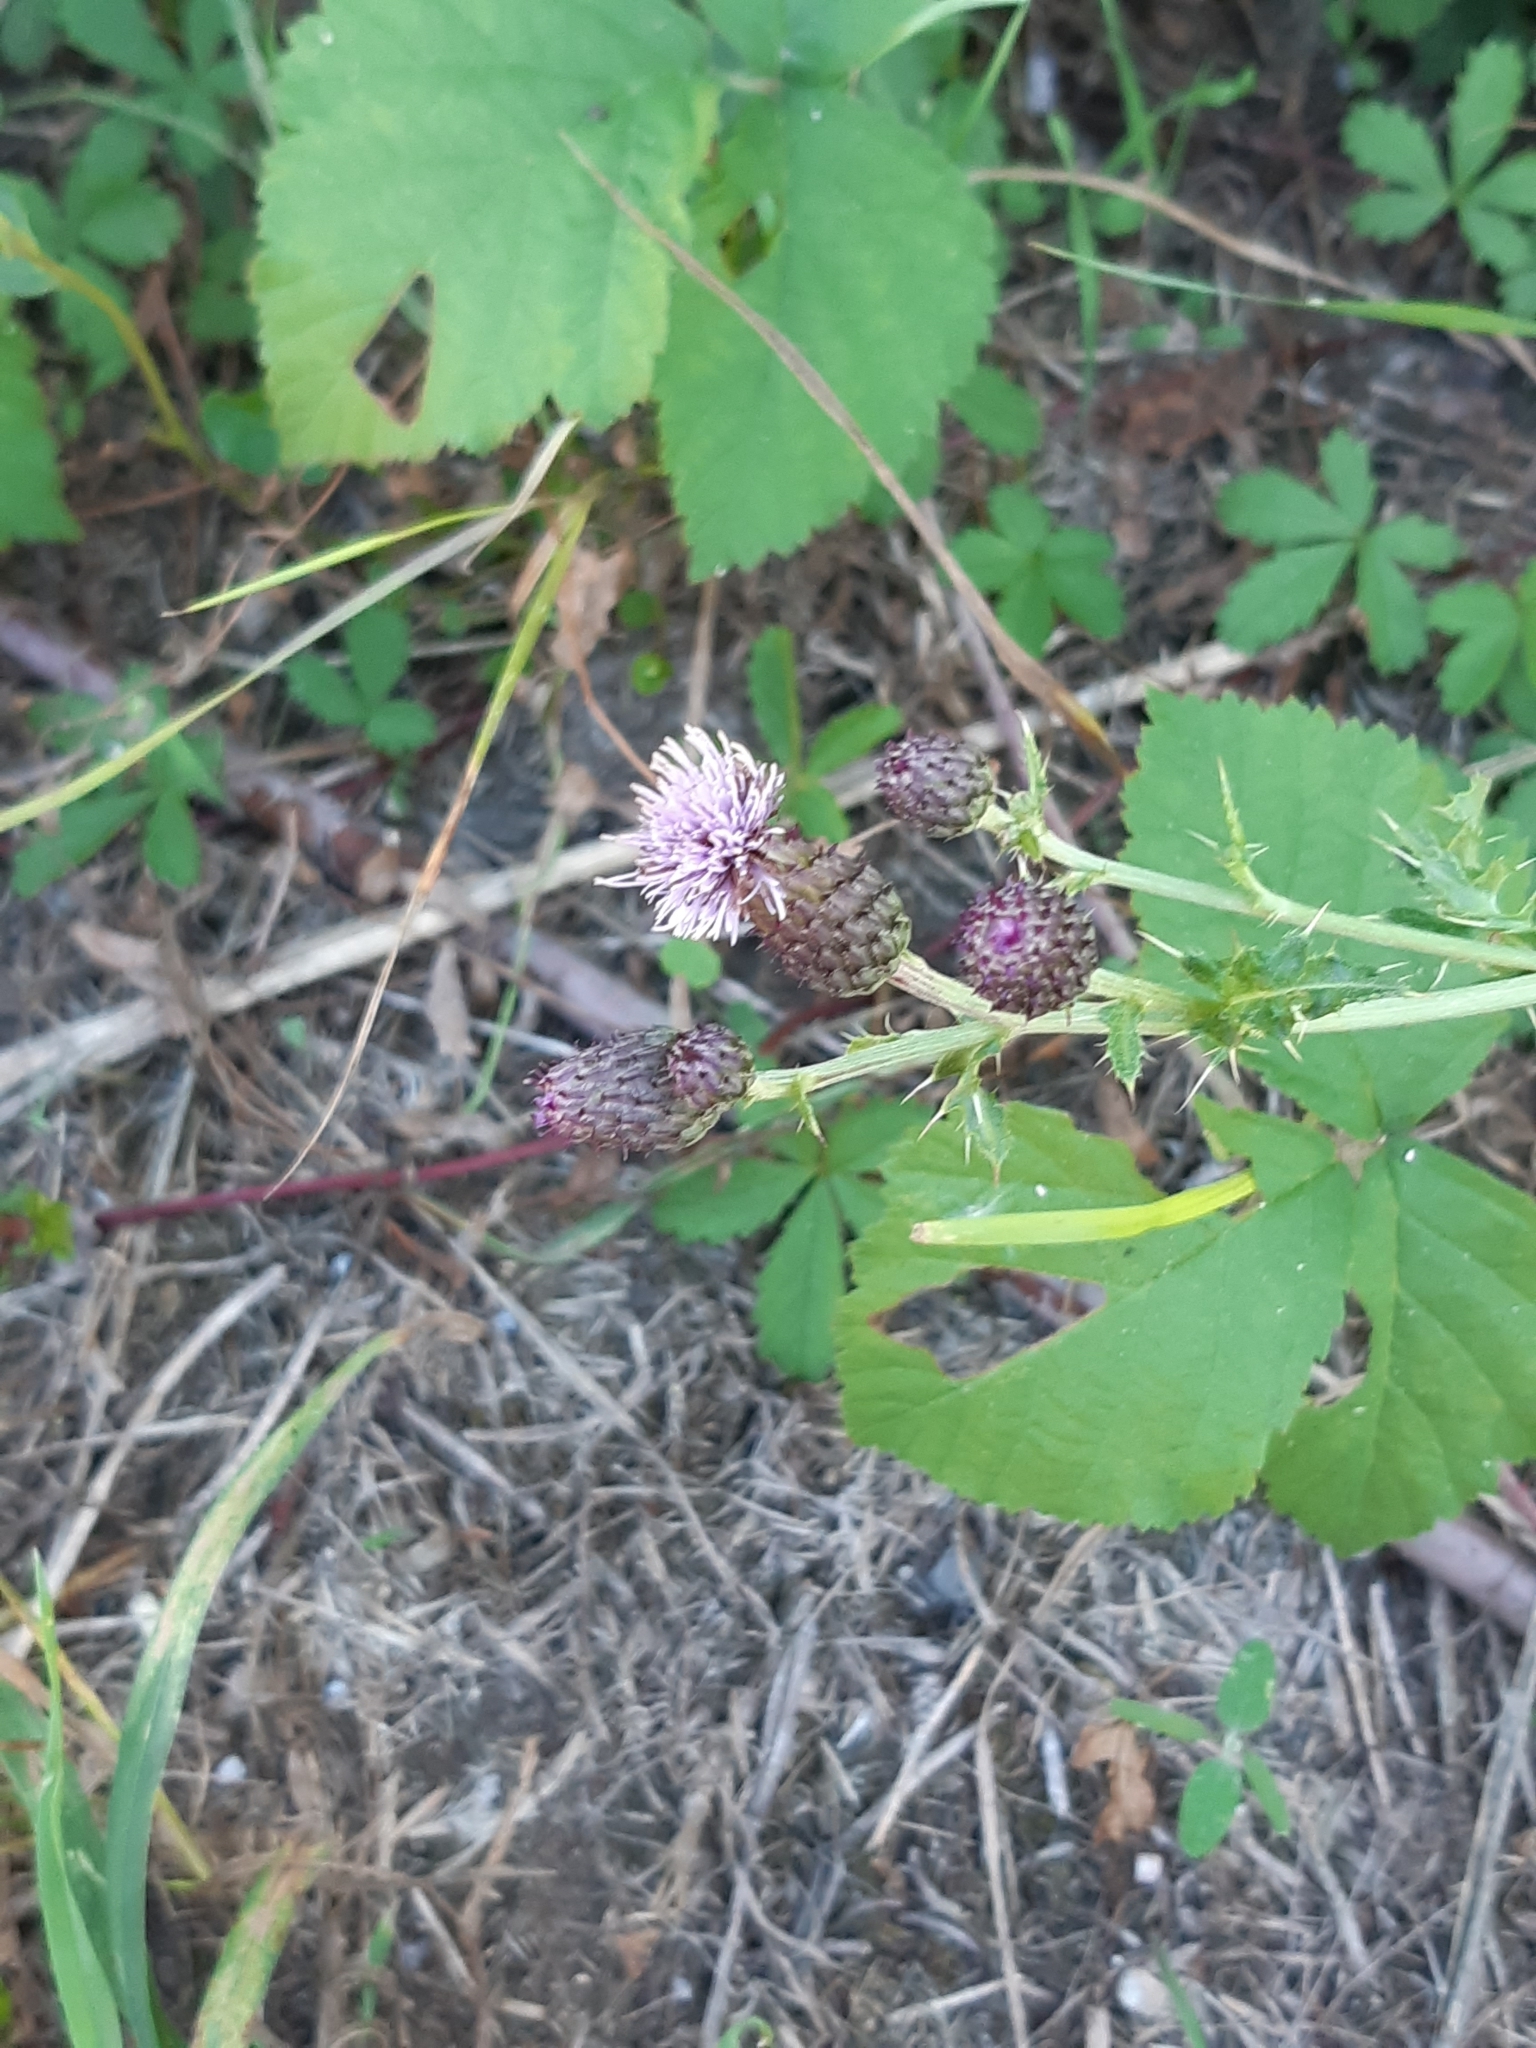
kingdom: Plantae
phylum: Tracheophyta
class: Magnoliopsida
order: Asterales
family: Asteraceae
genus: Cirsium
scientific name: Cirsium arvense
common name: Creeping thistle
